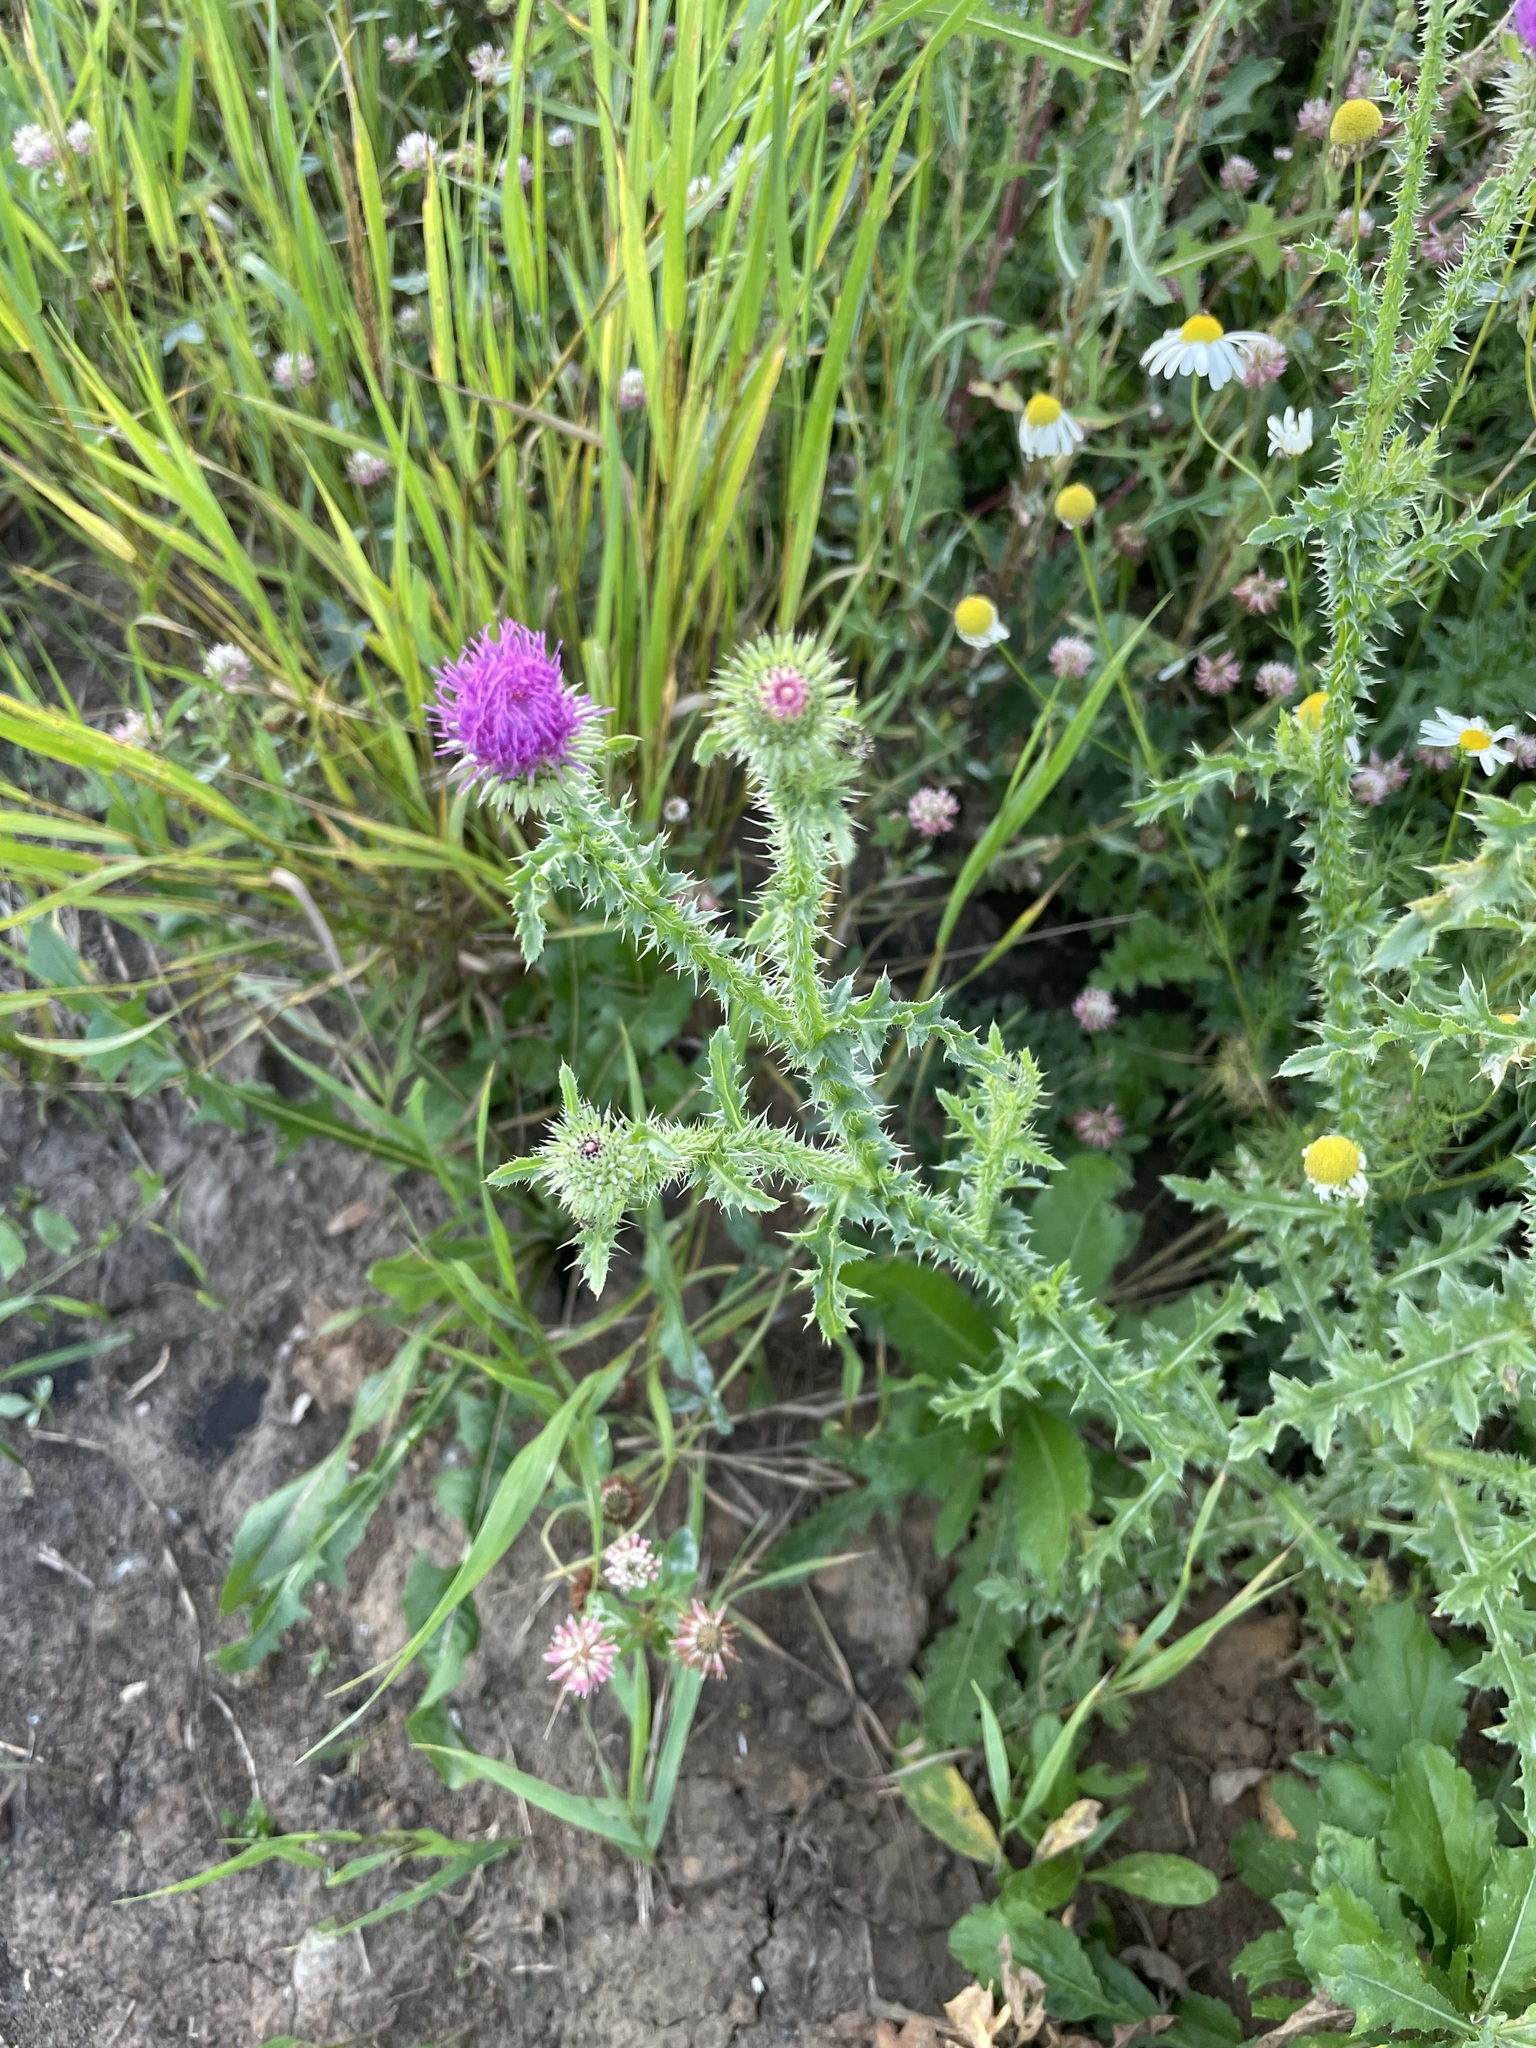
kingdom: Plantae
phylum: Tracheophyta
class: Magnoliopsida
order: Asterales
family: Asteraceae
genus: Carduus
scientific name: Carduus acanthoides
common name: Plumeless thistle
